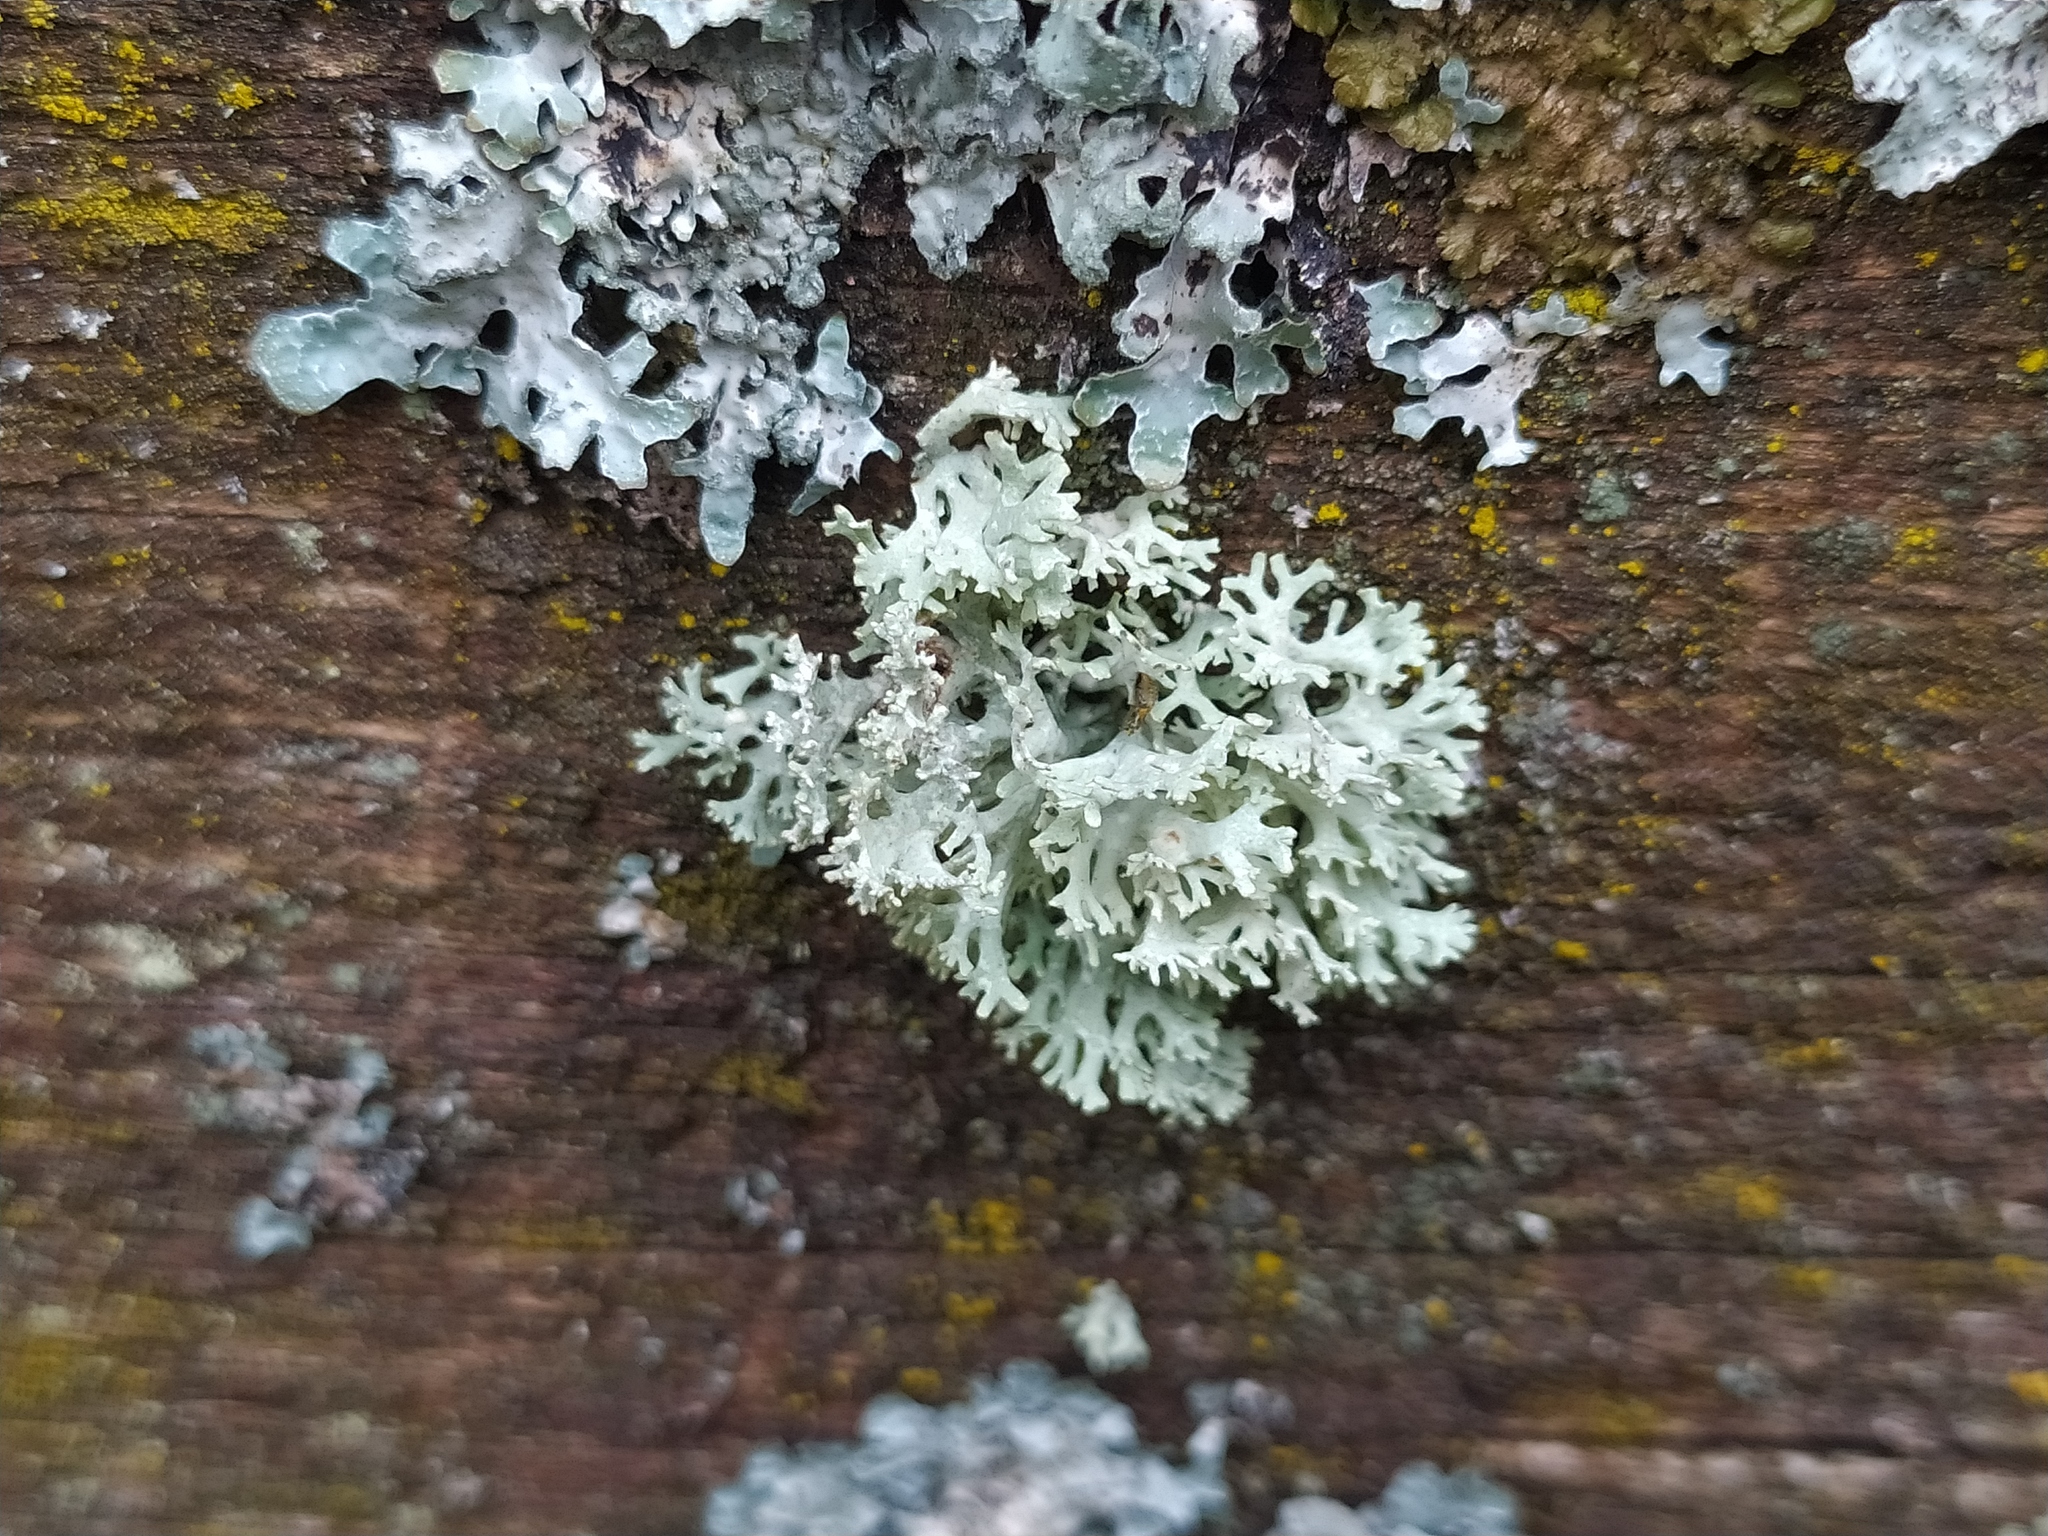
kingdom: Fungi
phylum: Ascomycota
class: Lecanoromycetes
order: Lecanorales
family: Parmeliaceae
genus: Evernia
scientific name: Evernia prunastri
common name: Oak moss
